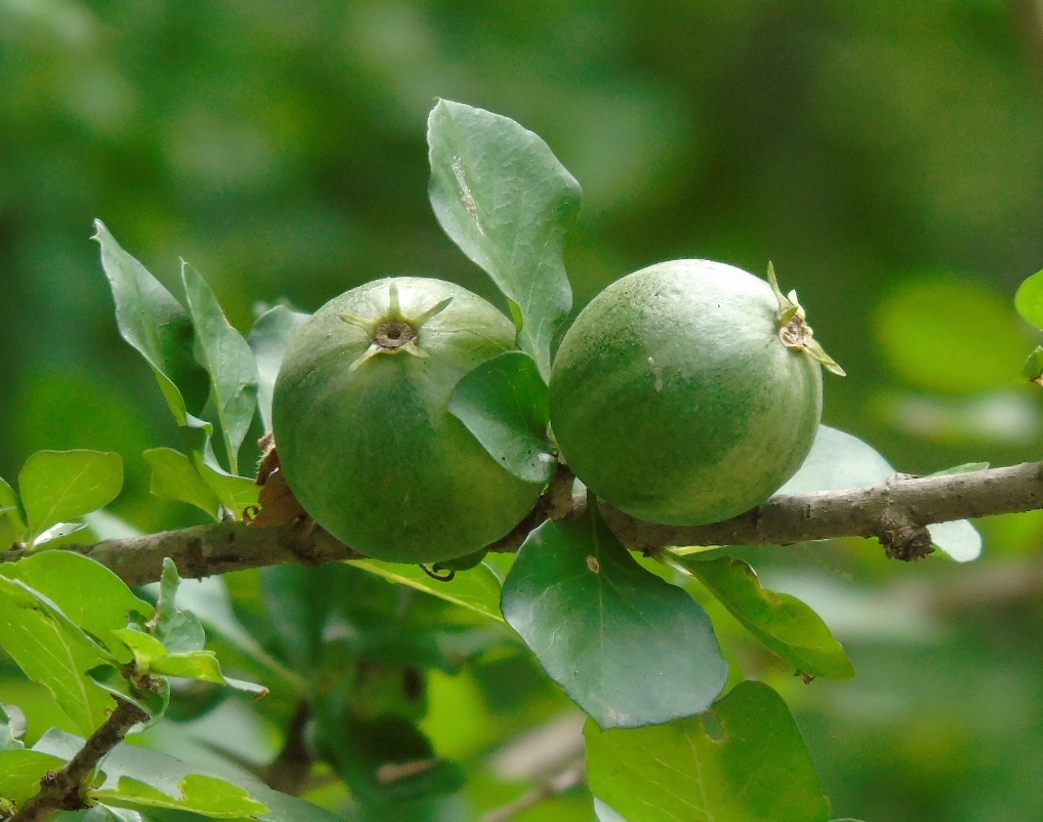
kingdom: Plantae
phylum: Tracheophyta
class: Magnoliopsida
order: Gentianales
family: Rubiaceae
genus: Randia
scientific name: Randia thurberi
